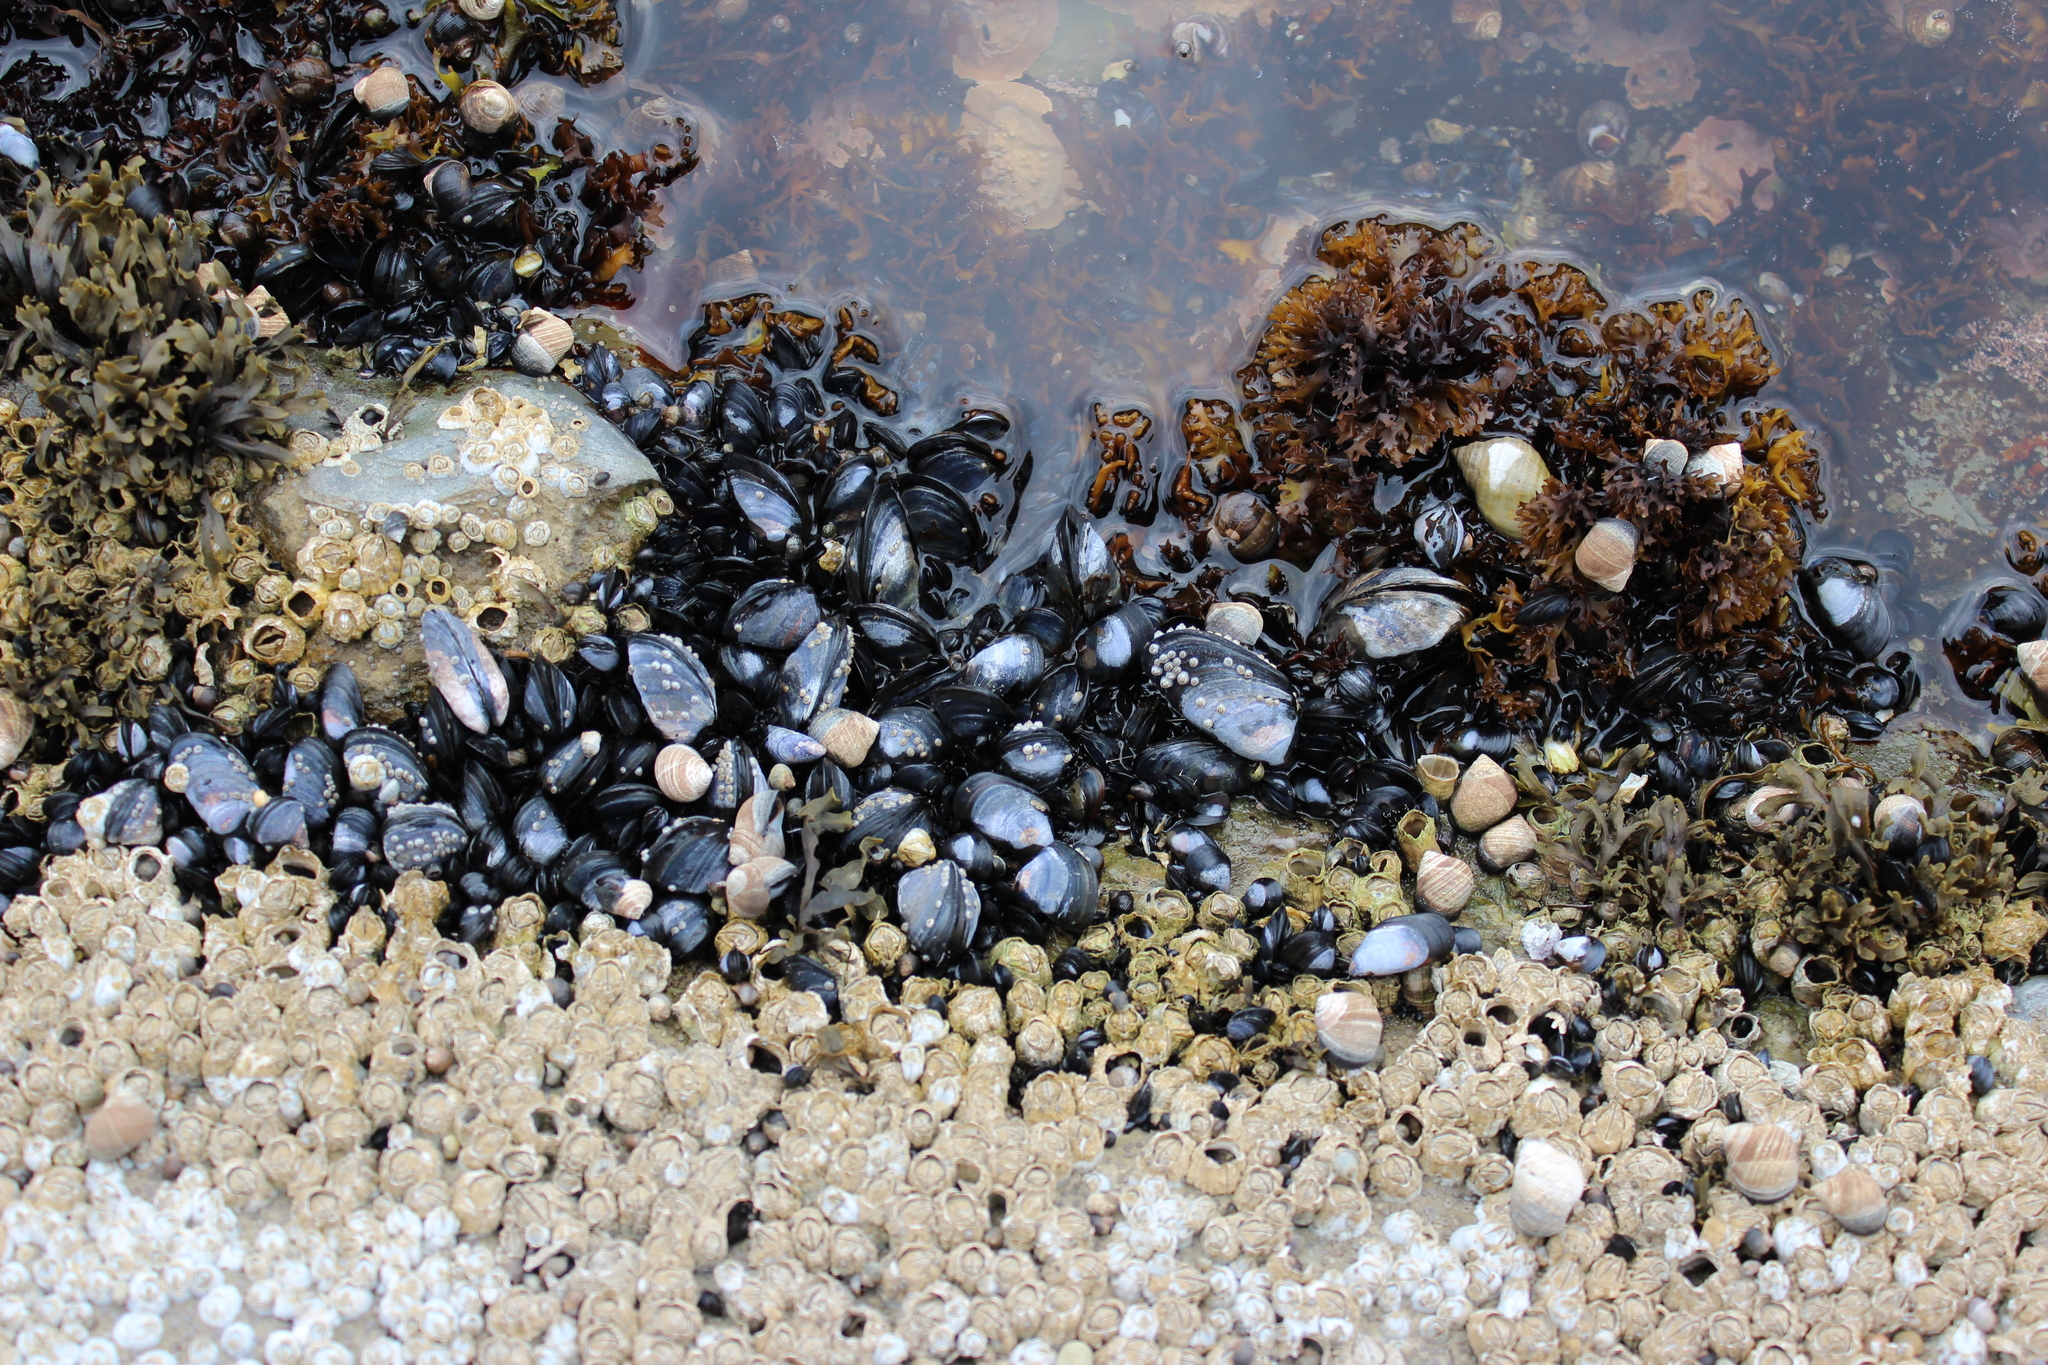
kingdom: Animalia
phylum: Mollusca
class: Bivalvia
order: Mytilida
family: Mytilidae
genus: Mytilus
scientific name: Mytilus edulis
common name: Blue mussel
